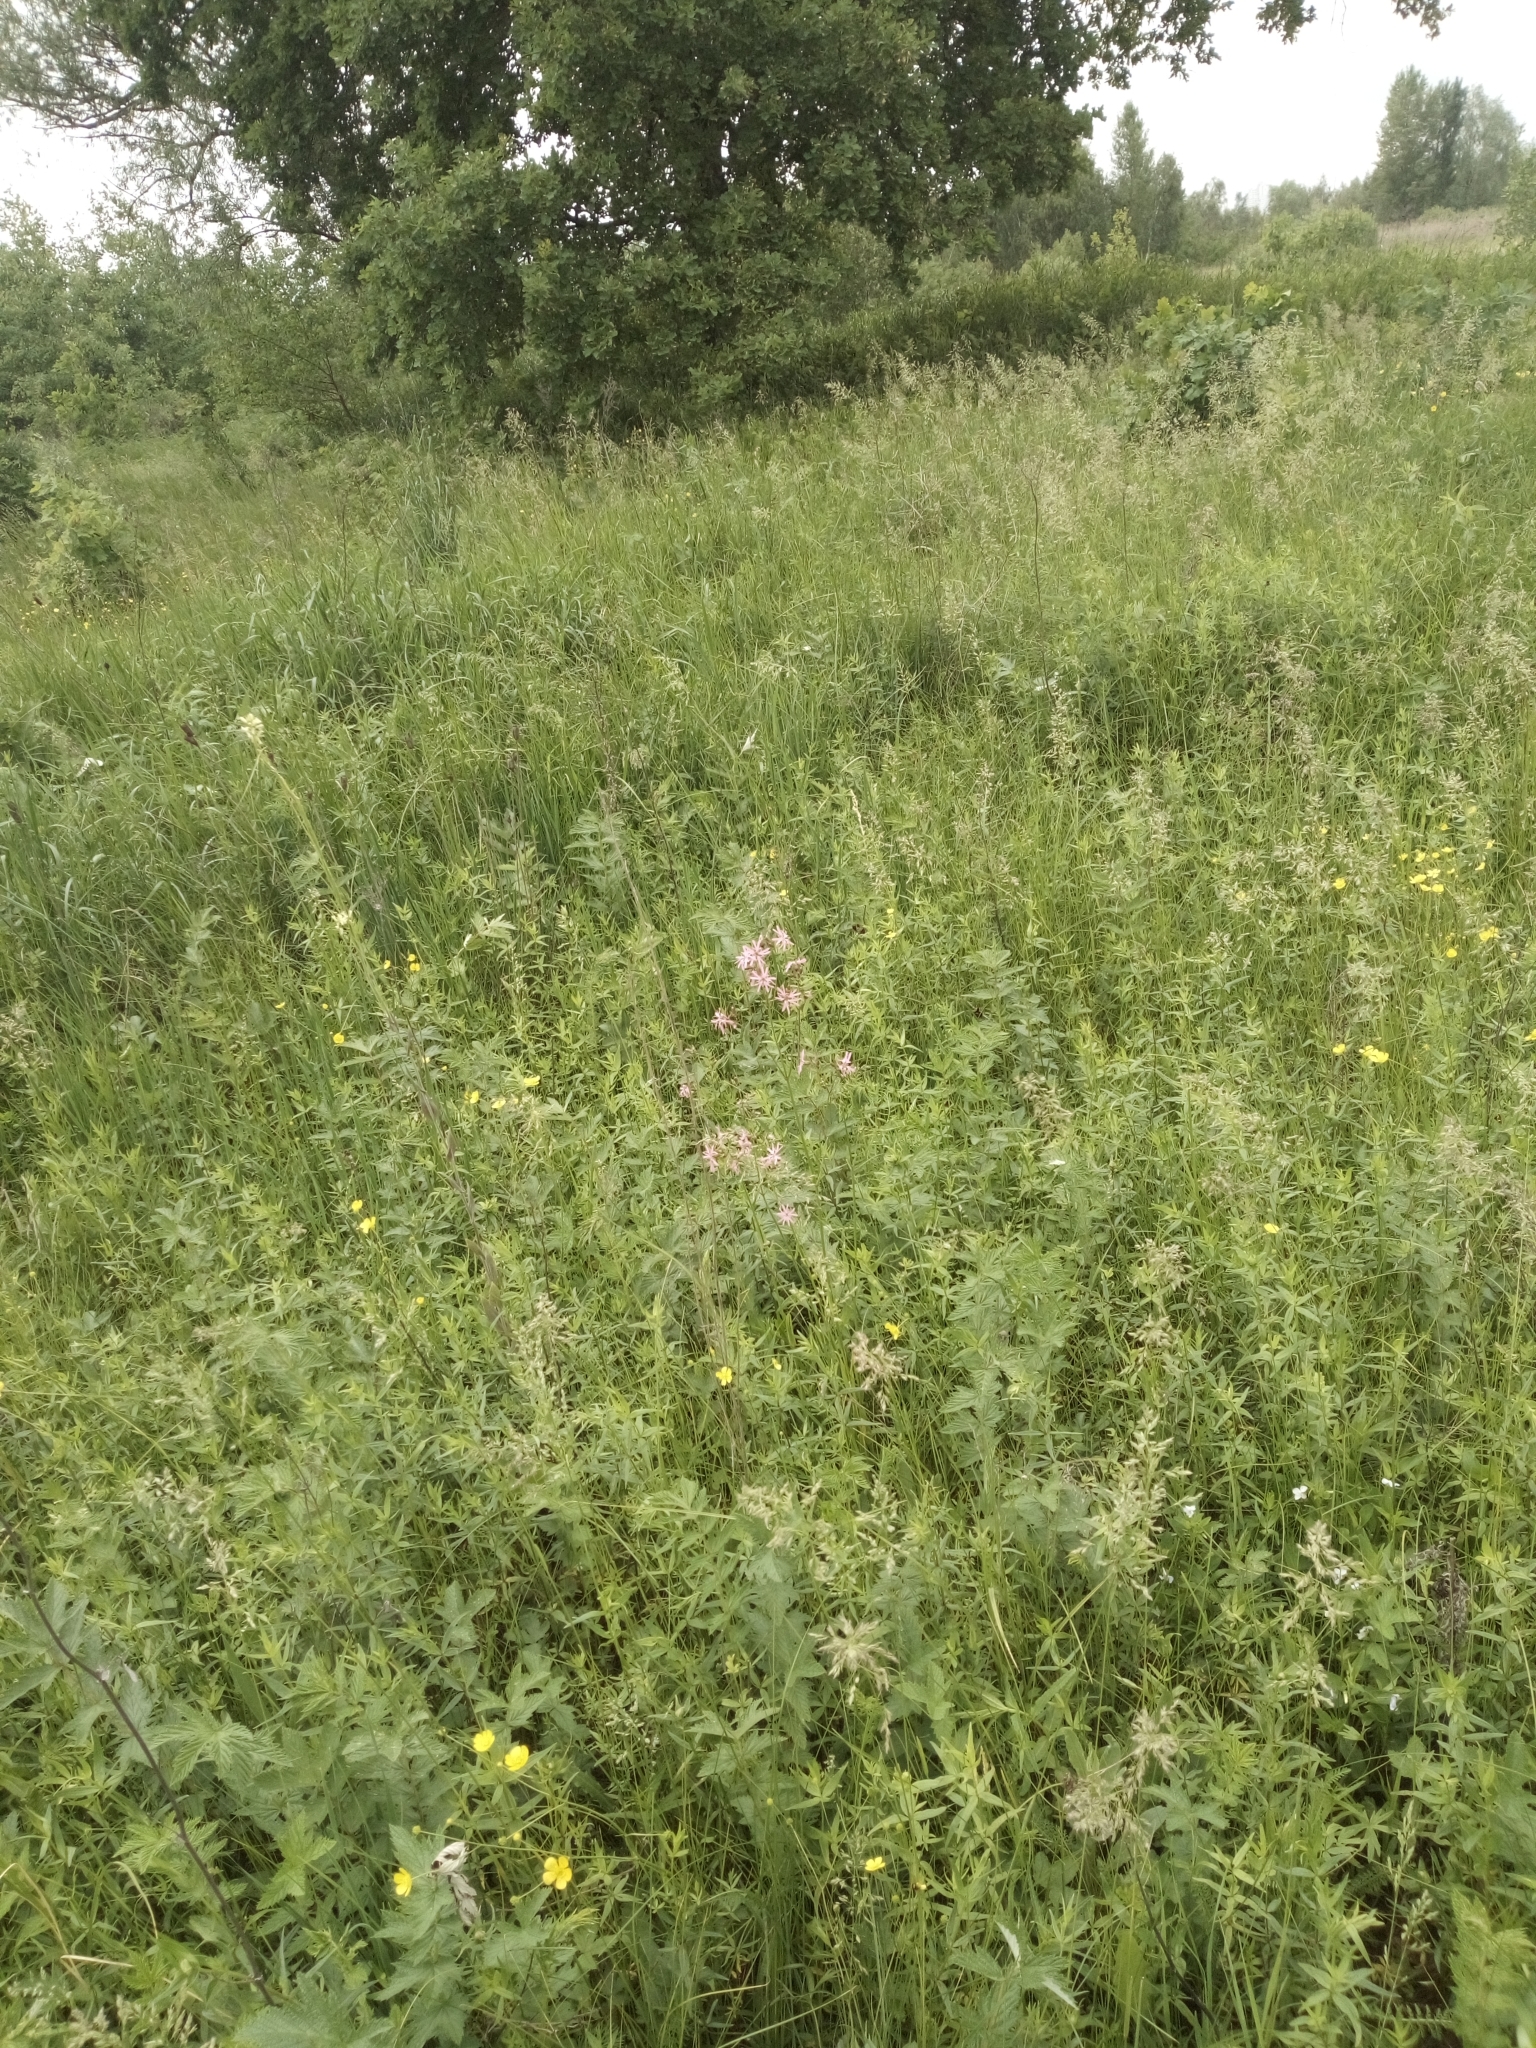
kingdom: Plantae
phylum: Tracheophyta
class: Magnoliopsida
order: Caryophyllales
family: Caryophyllaceae
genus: Silene
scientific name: Silene flos-cuculi
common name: Ragged-robin
